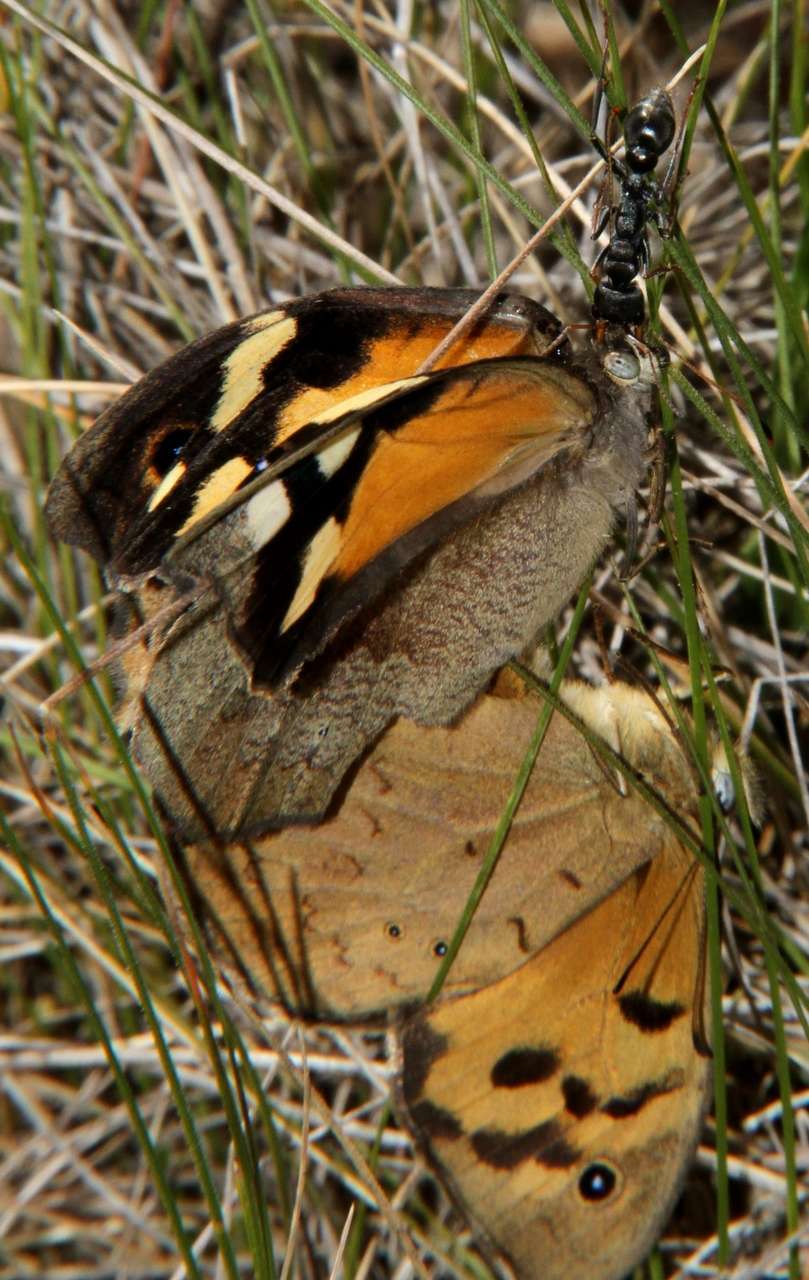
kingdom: Animalia
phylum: Arthropoda
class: Insecta
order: Lepidoptera
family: Nymphalidae
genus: Heteronympha
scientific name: Heteronympha merope
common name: Common brown
